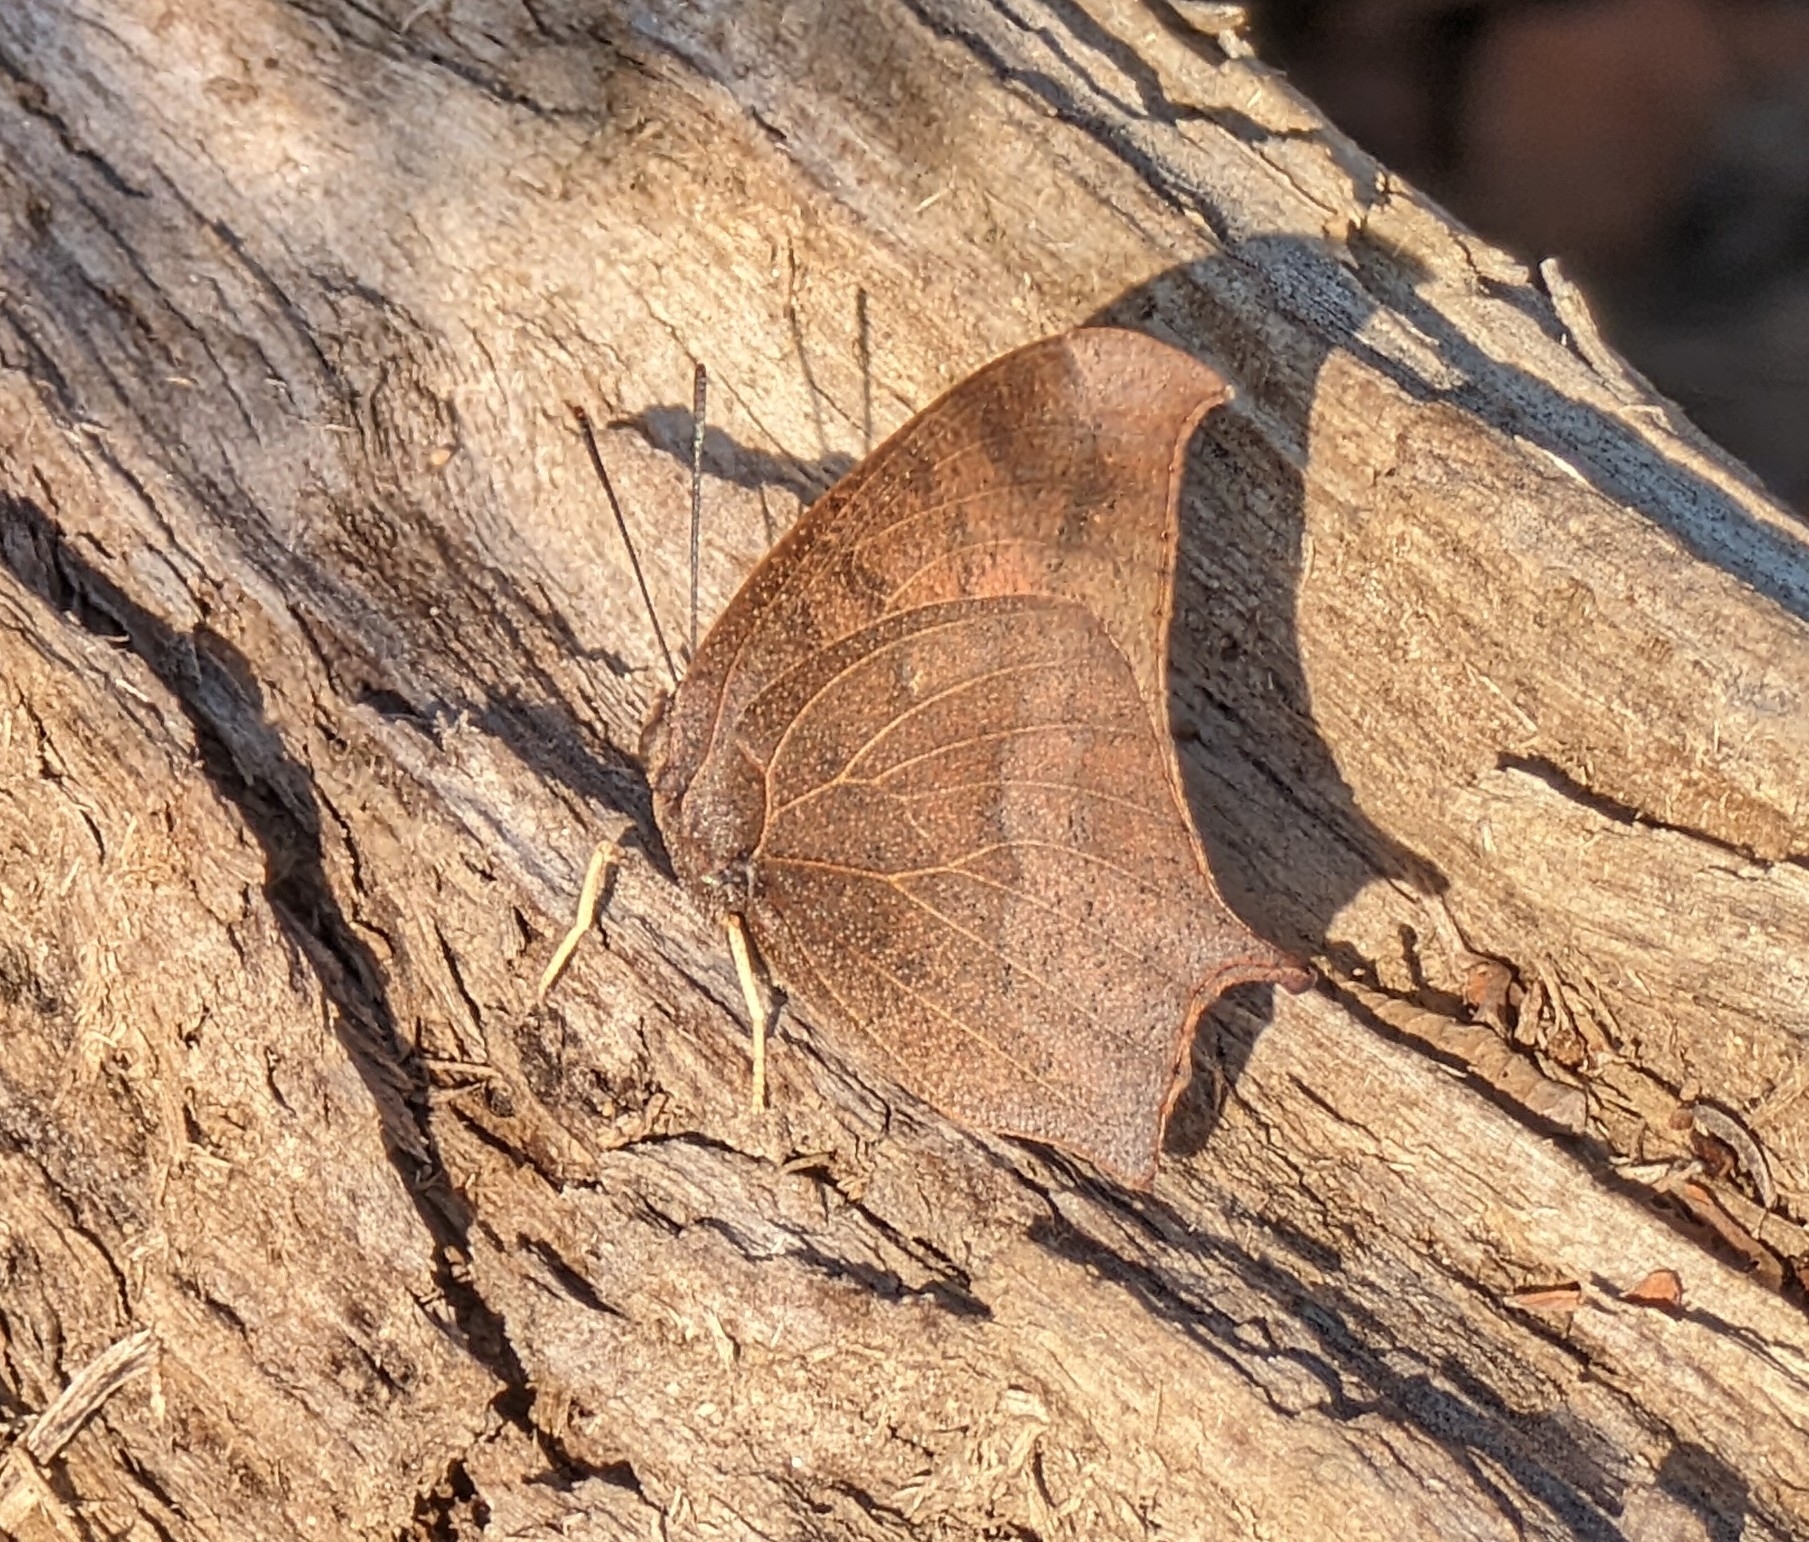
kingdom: Animalia
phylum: Arthropoda
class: Insecta
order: Lepidoptera
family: Nymphalidae
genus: Anaea
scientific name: Anaea andria
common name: Goatweed leafwing
